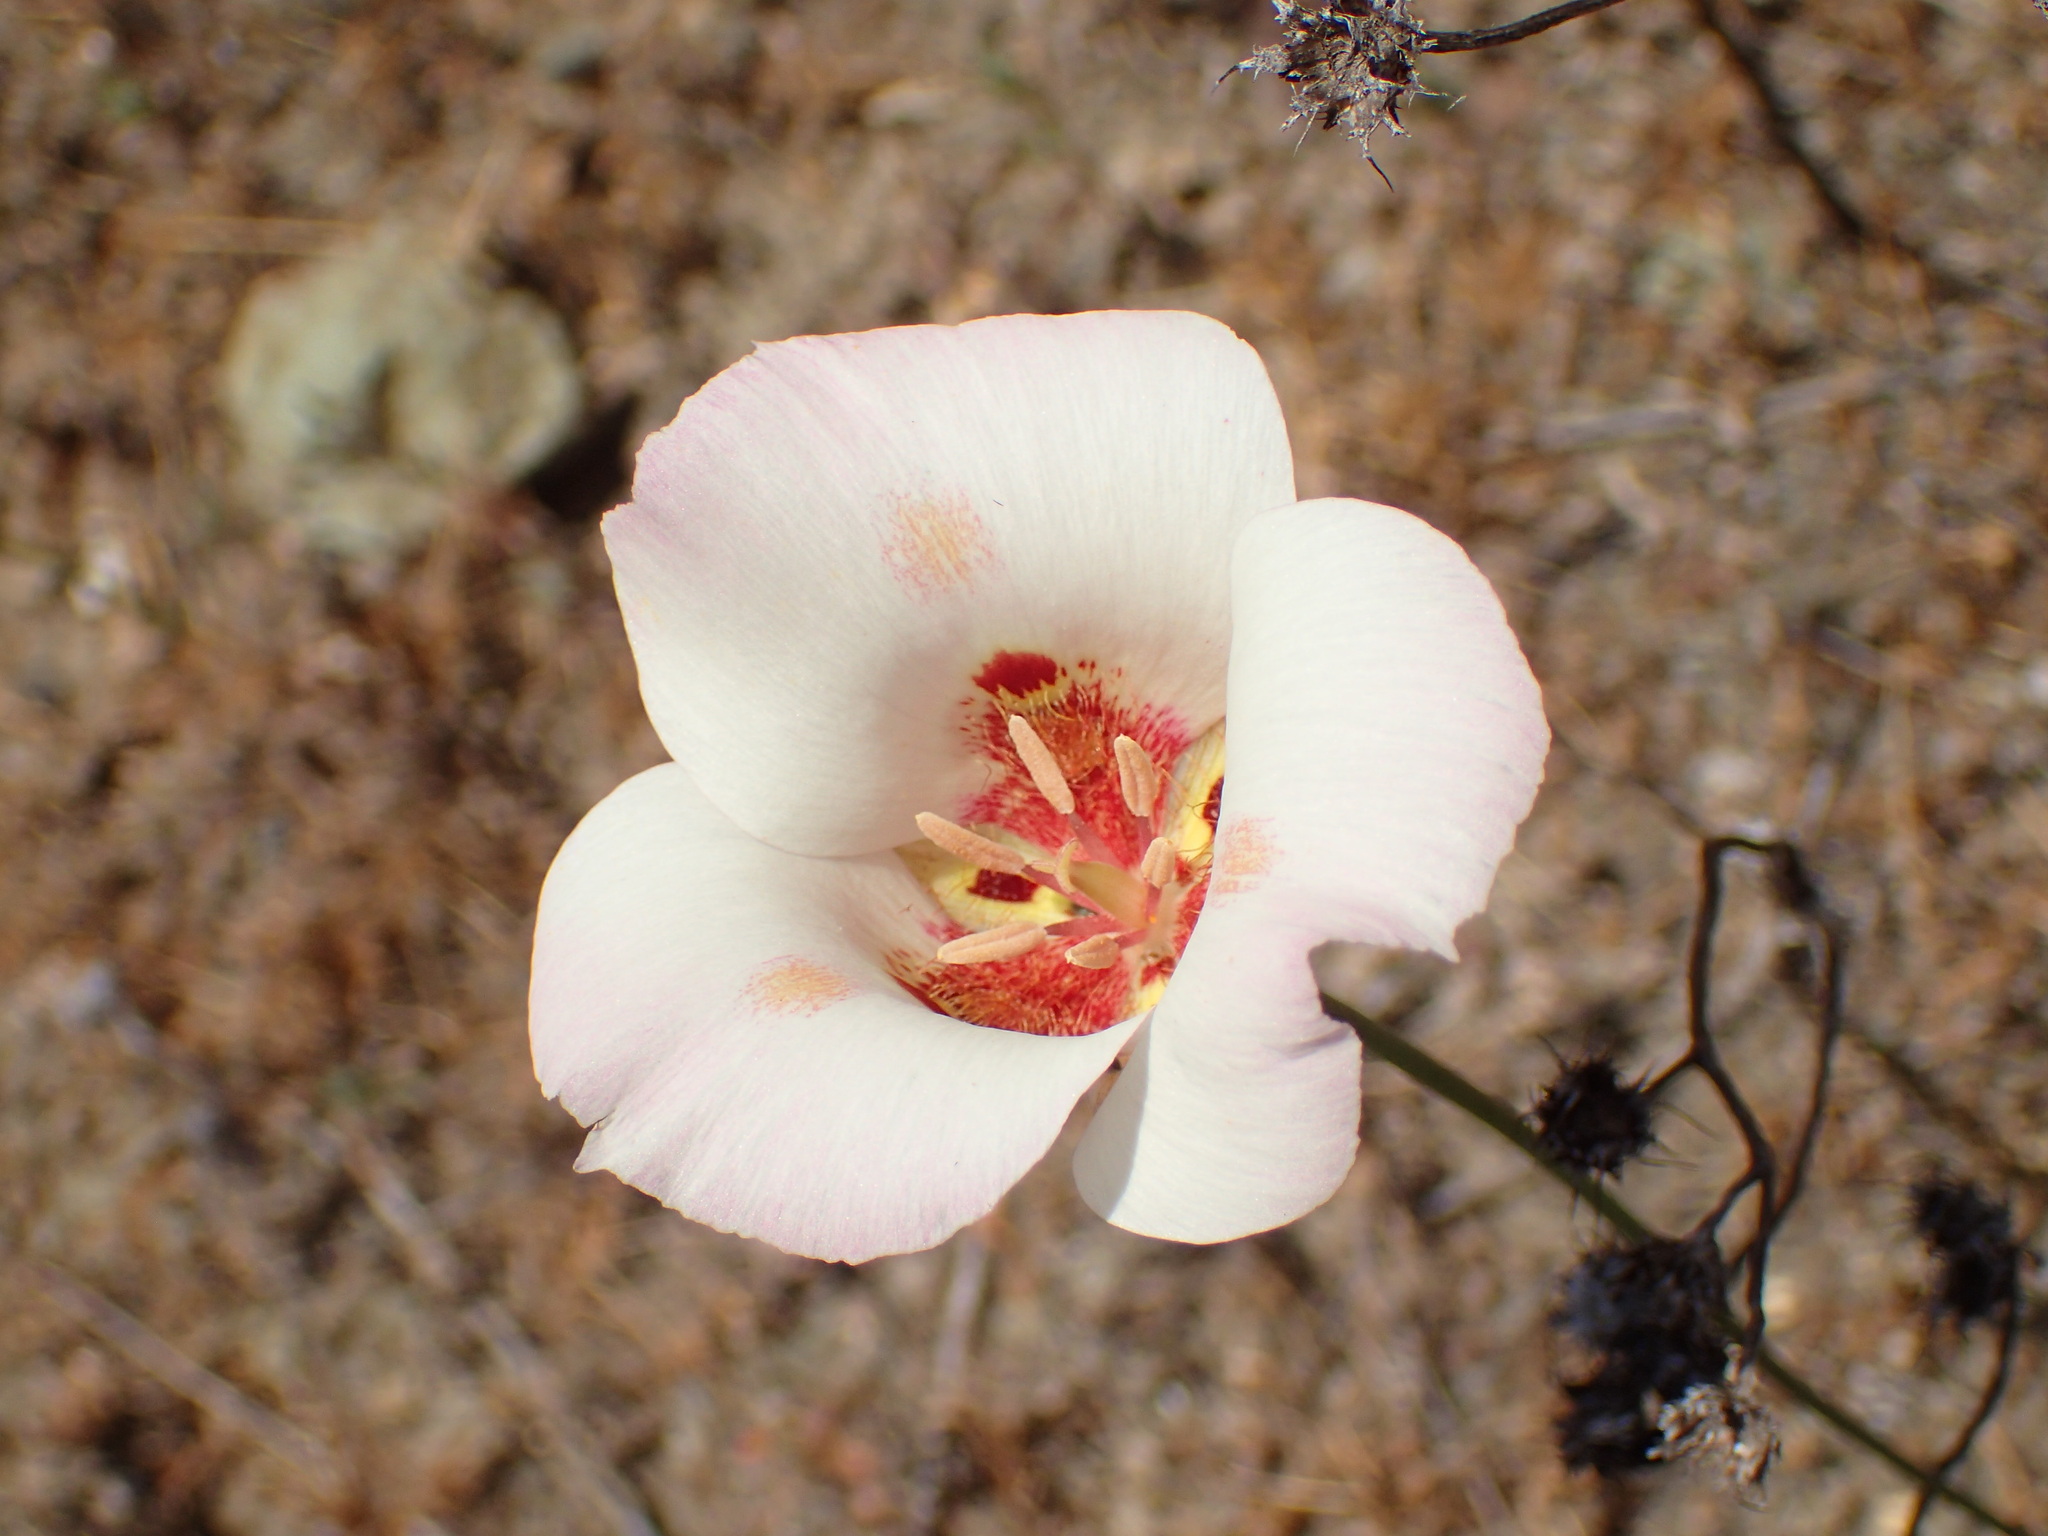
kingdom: Plantae
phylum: Tracheophyta
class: Liliopsida
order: Liliales
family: Liliaceae
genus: Calochortus
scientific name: Calochortus venustus
